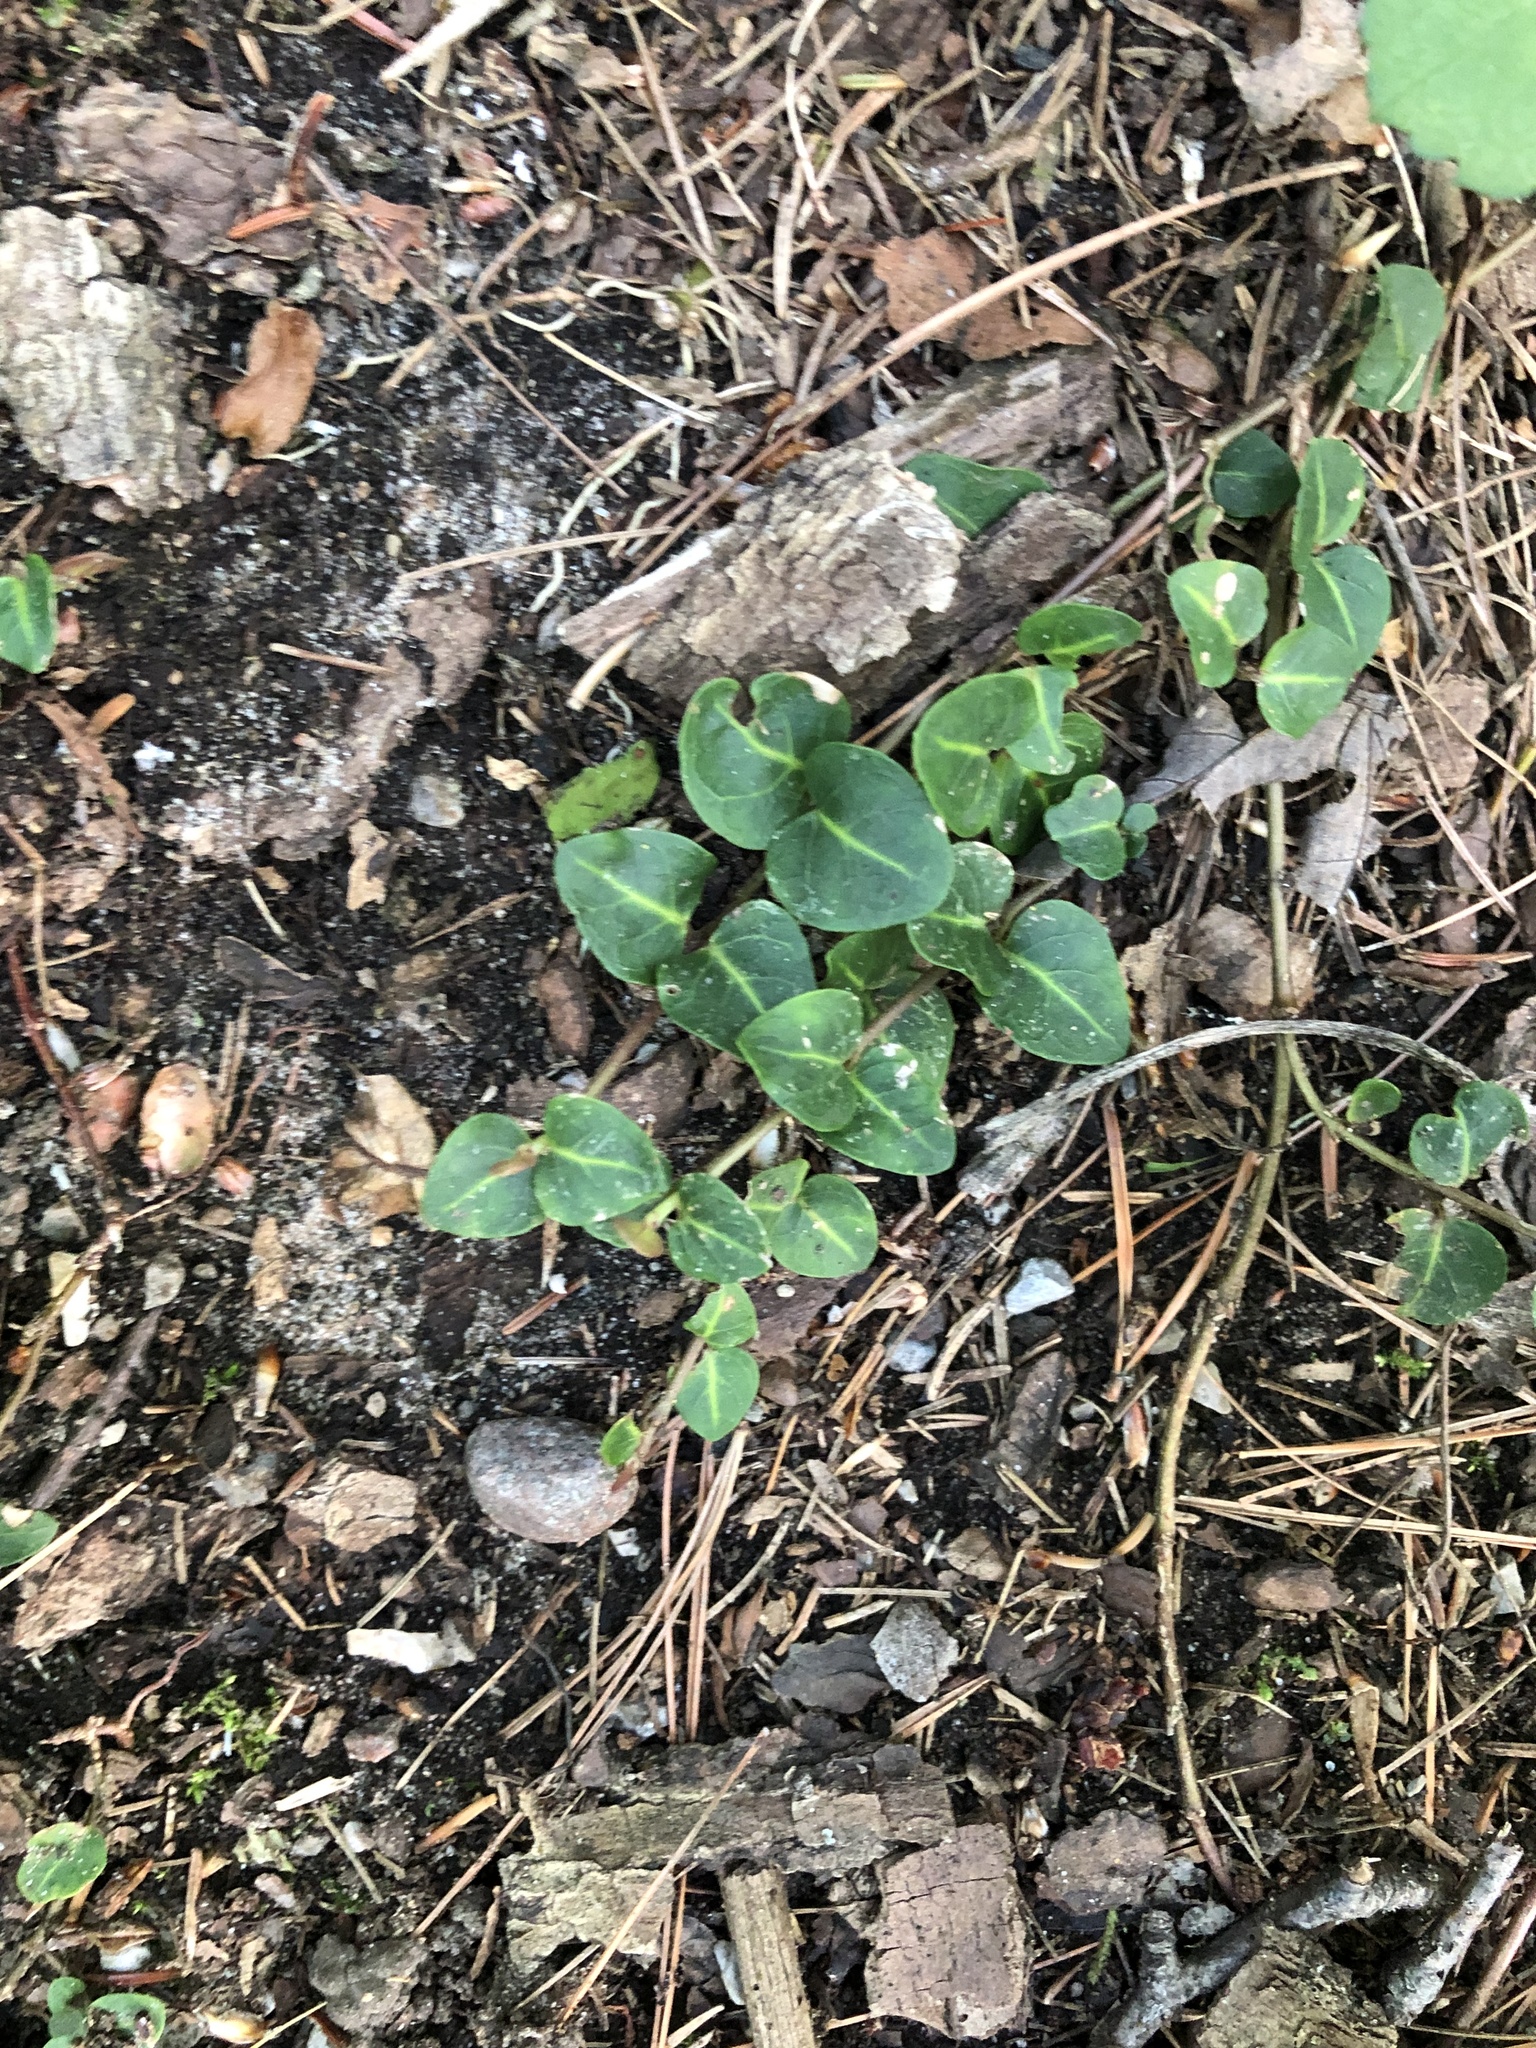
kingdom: Plantae
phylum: Tracheophyta
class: Magnoliopsida
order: Gentianales
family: Rubiaceae
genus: Mitchella
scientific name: Mitchella repens
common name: Partridge-berry
